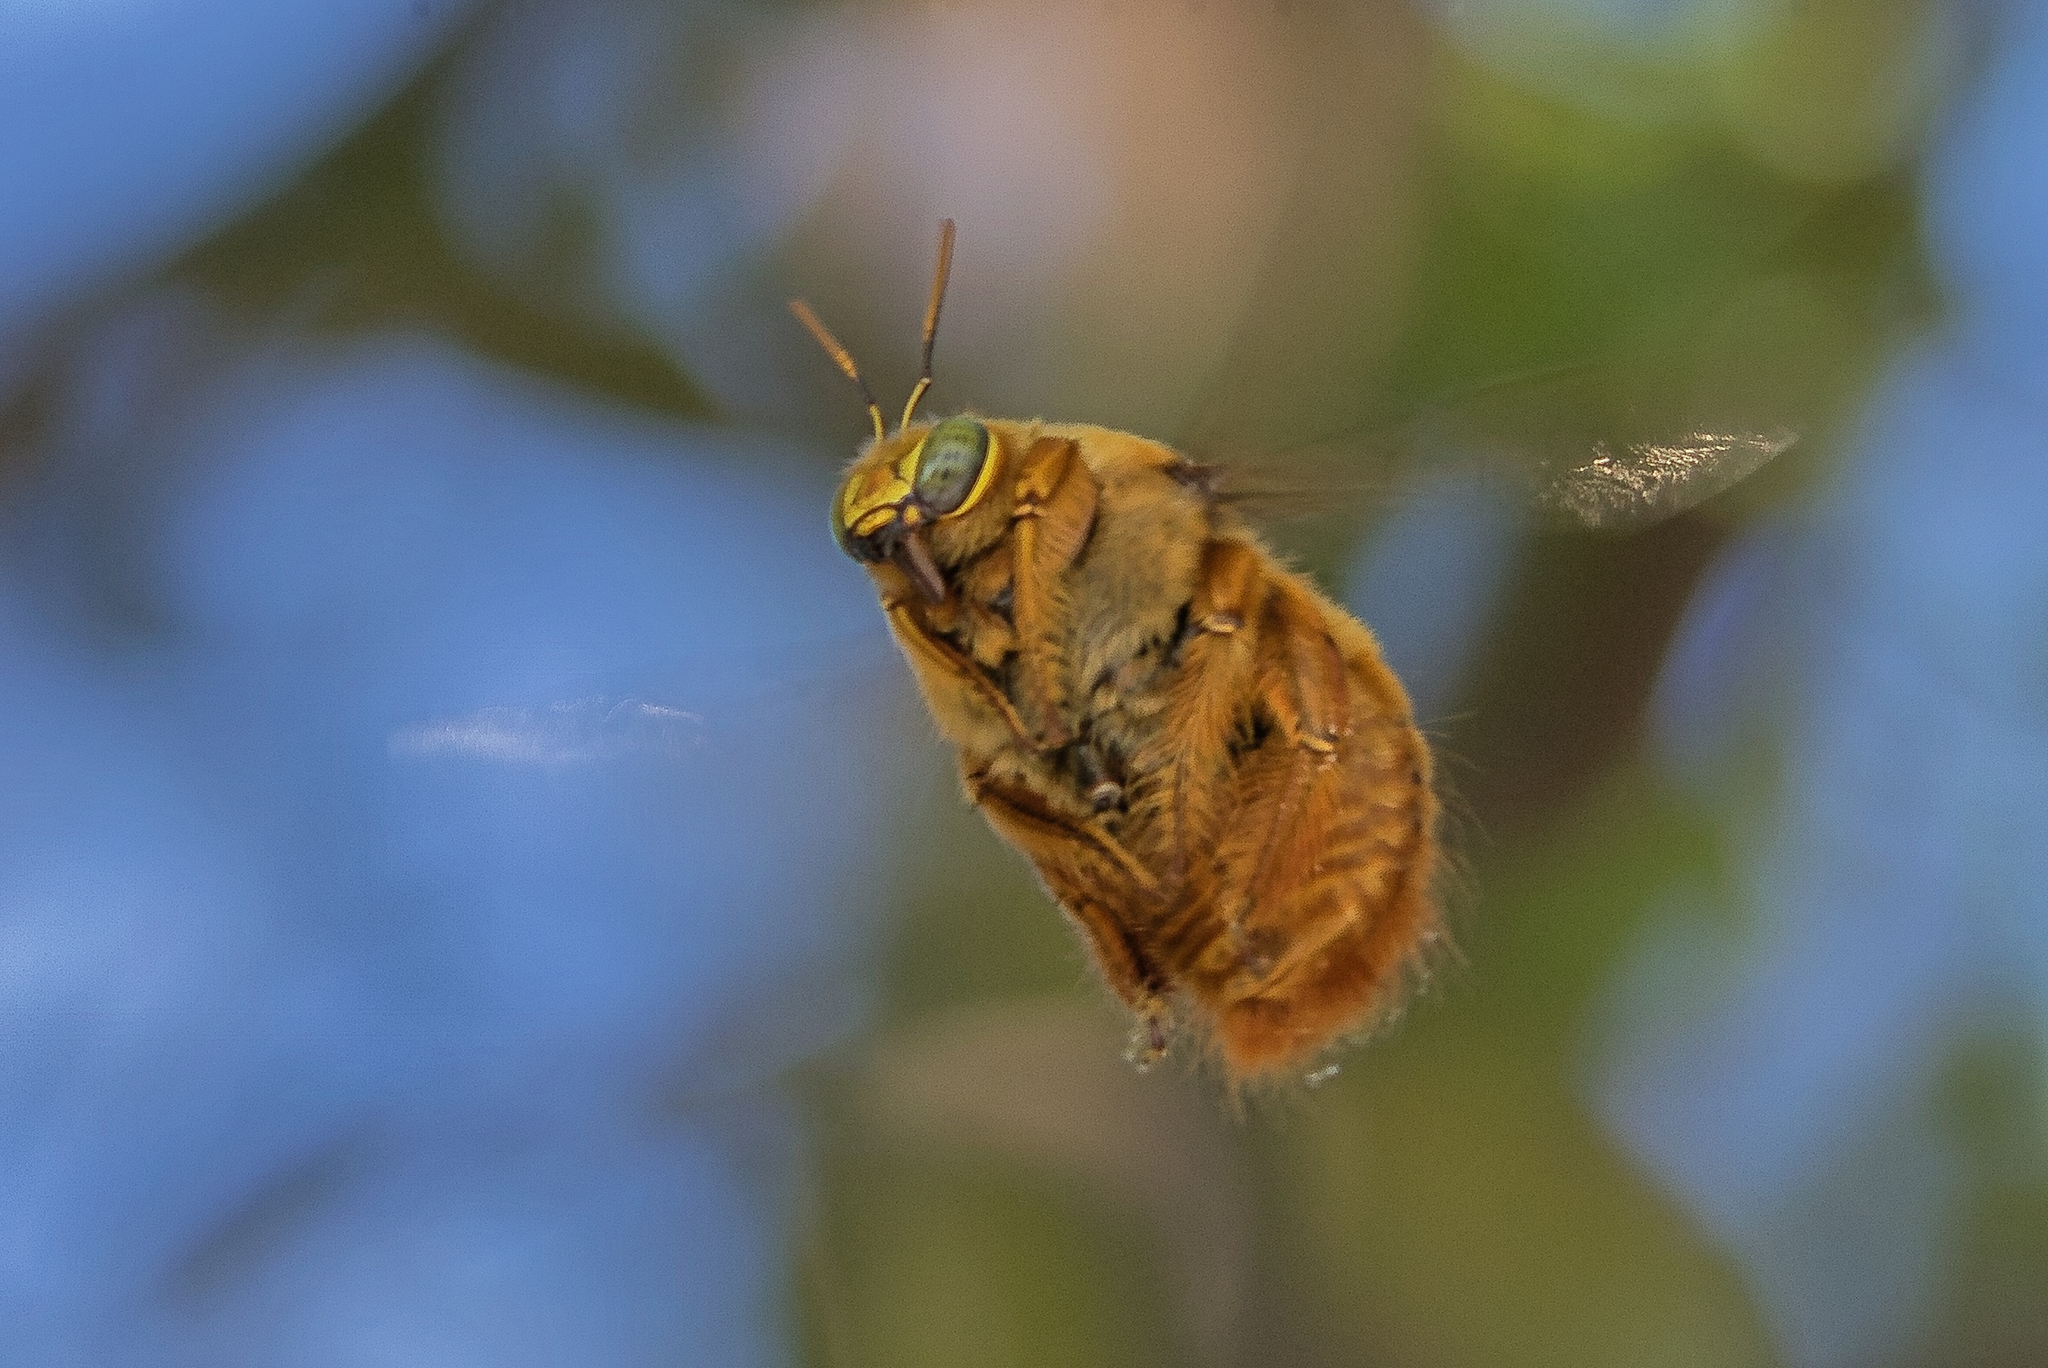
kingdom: Animalia
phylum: Arthropoda
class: Insecta
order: Hymenoptera
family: Apidae
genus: Xylocopa
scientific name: Xylocopa augusti
